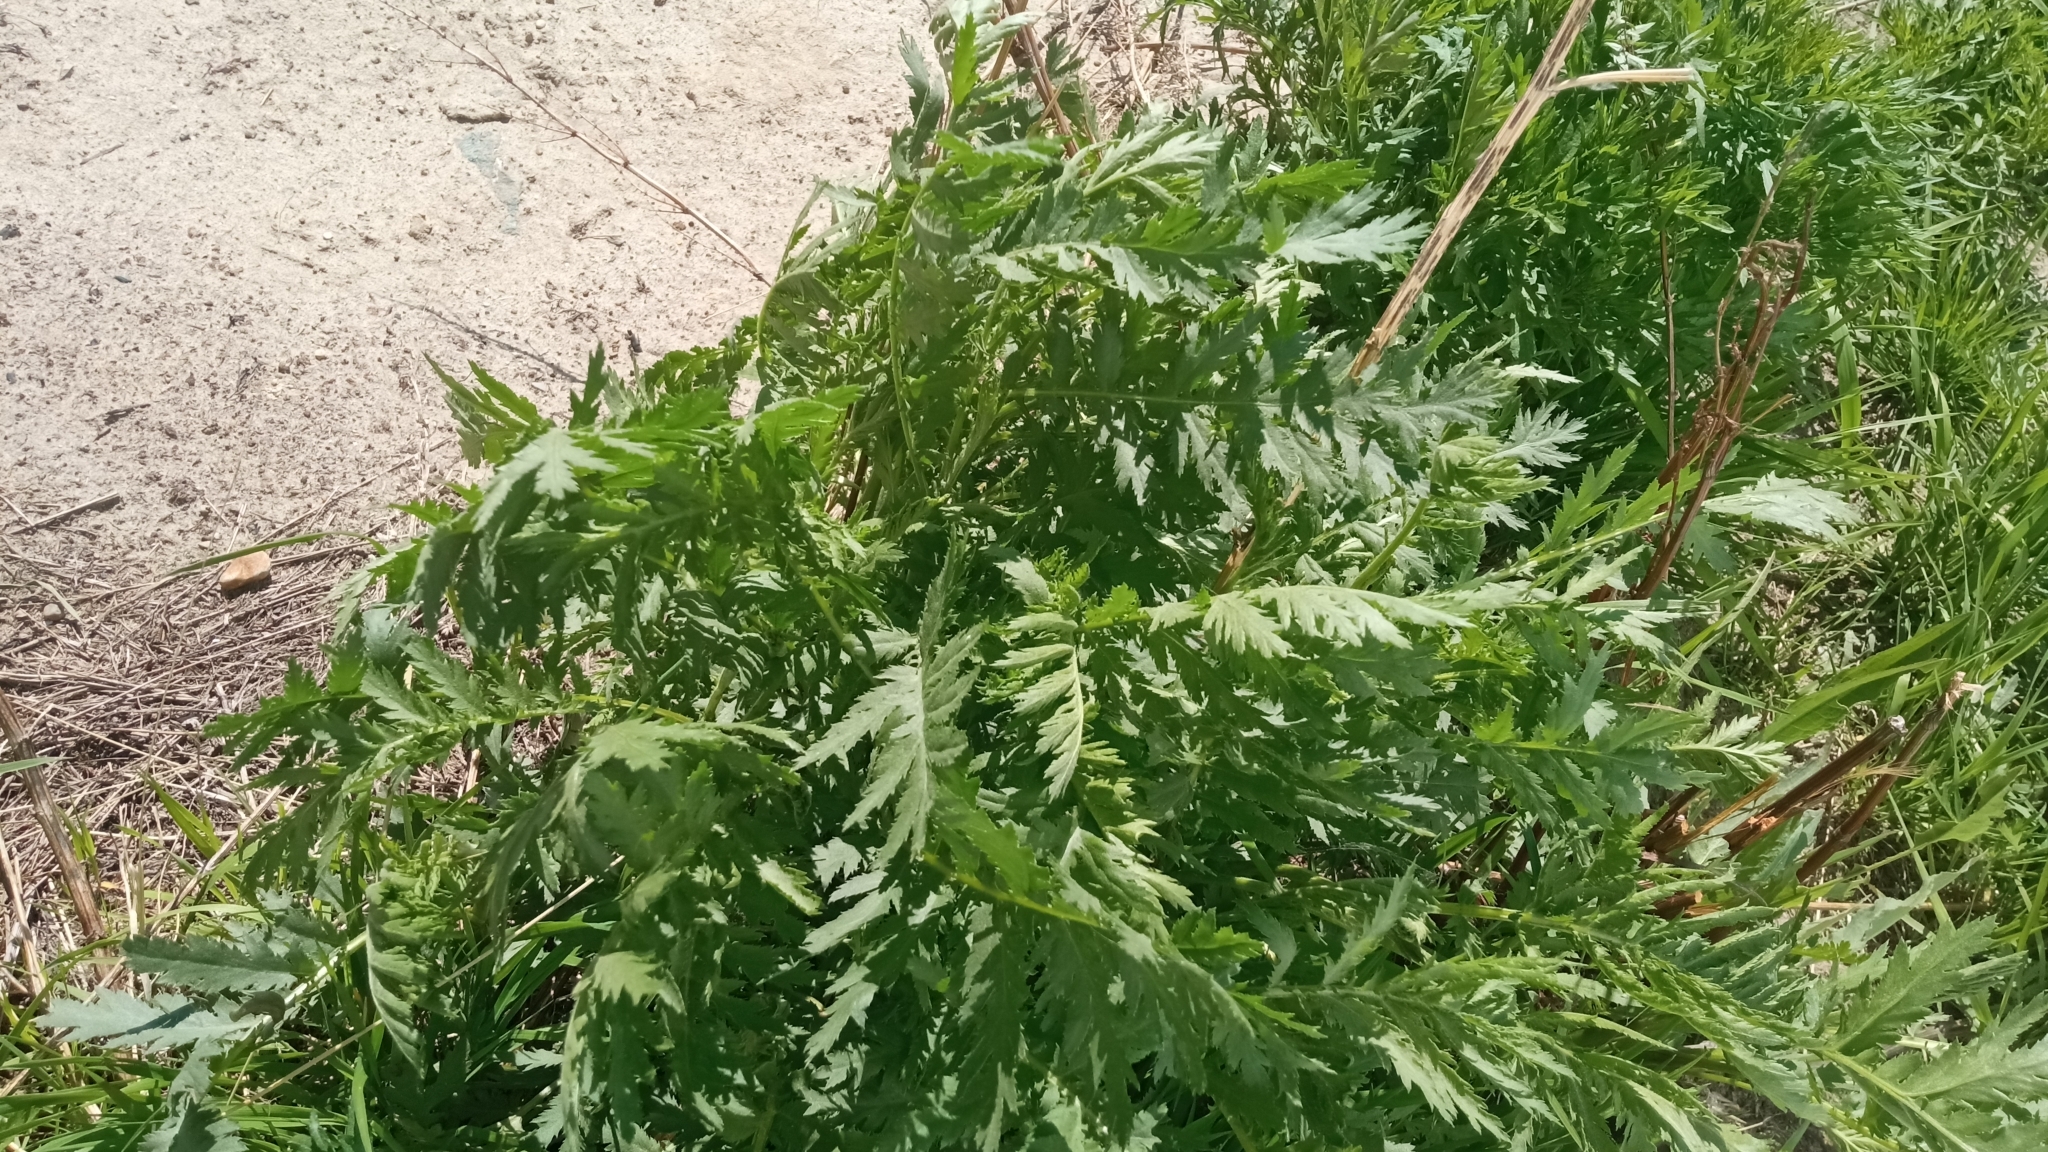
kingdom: Plantae
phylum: Tracheophyta
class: Magnoliopsida
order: Asterales
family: Asteraceae
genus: Tanacetum
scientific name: Tanacetum vulgare
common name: Common tansy
